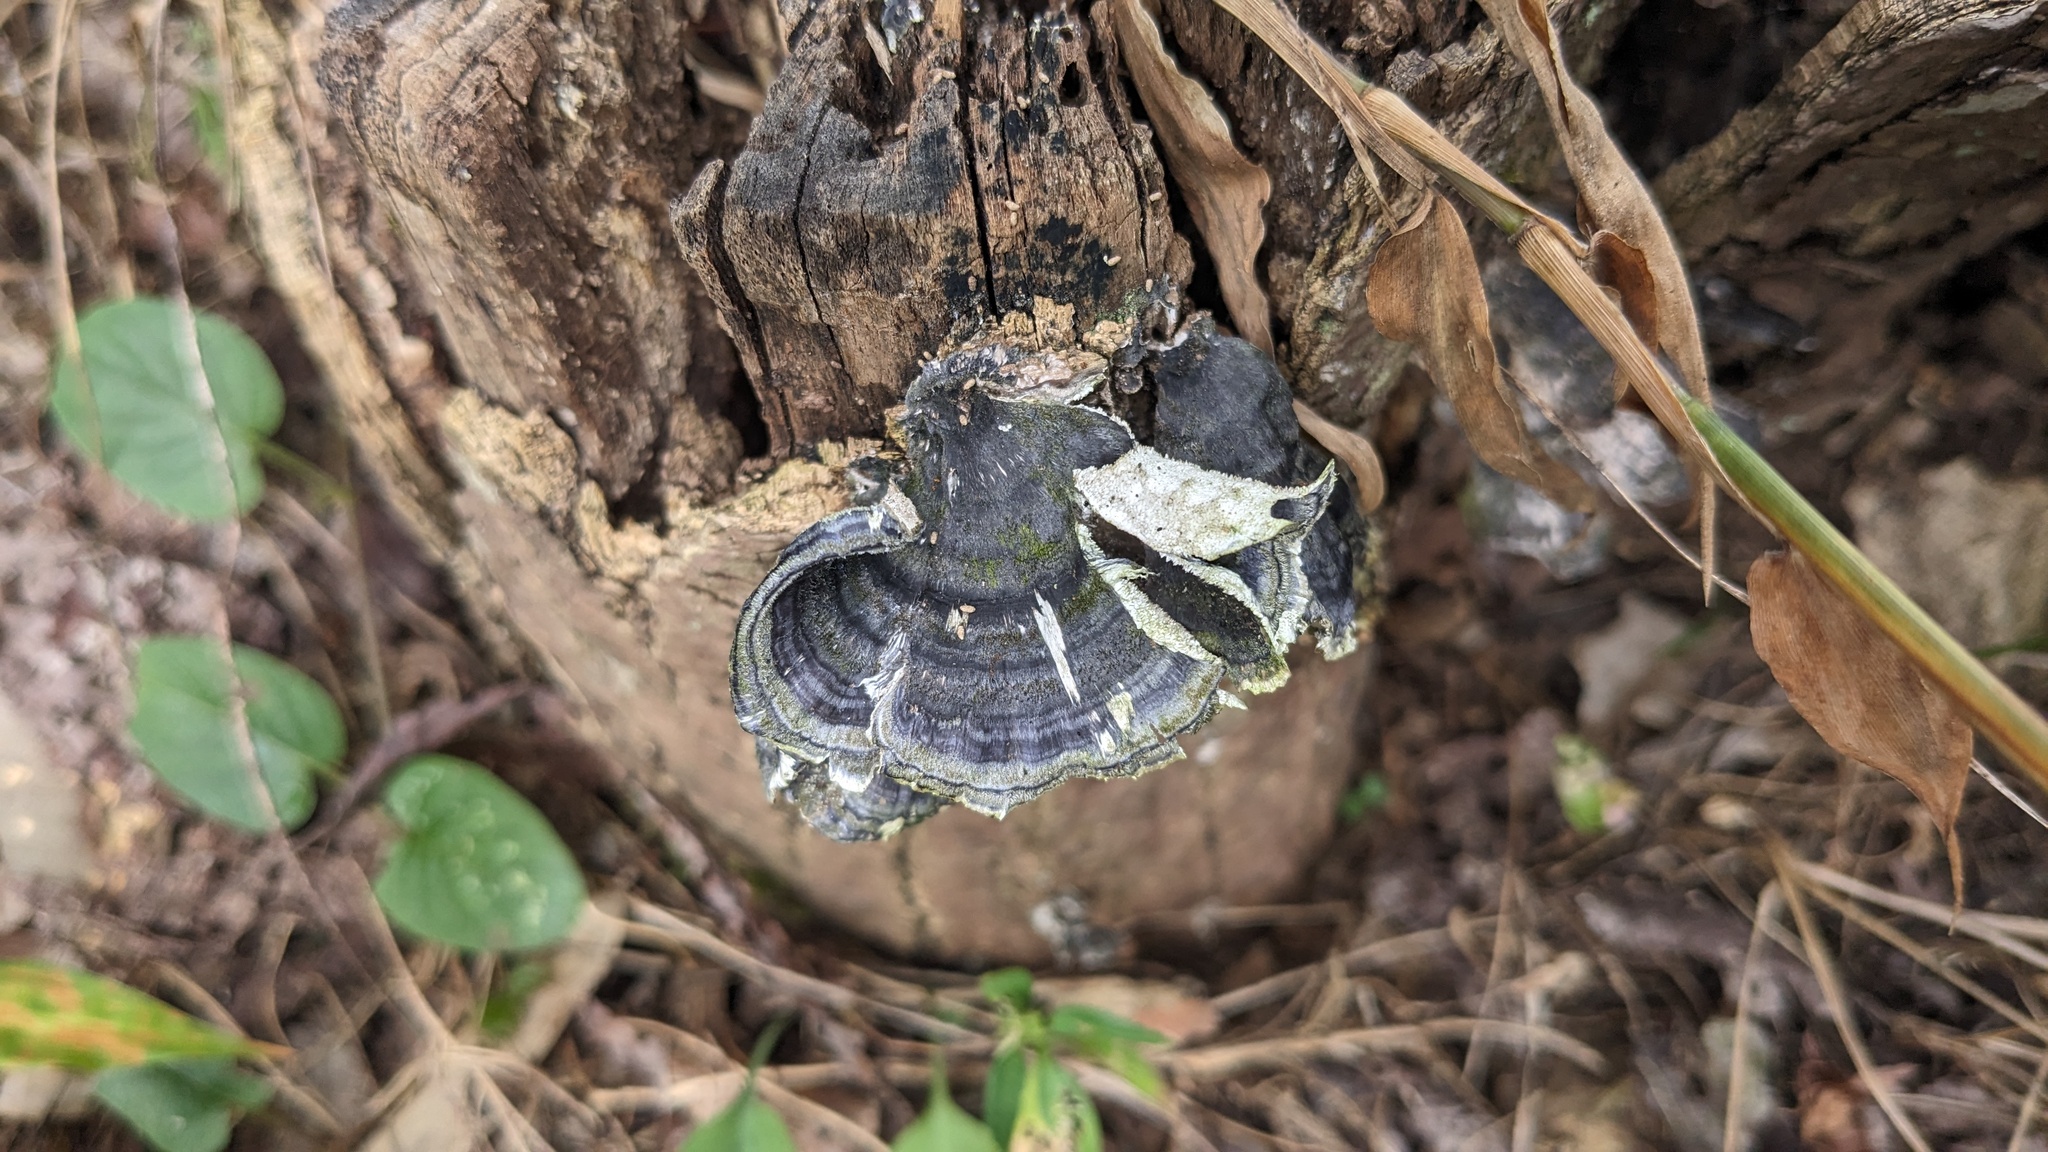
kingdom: Fungi
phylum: Basidiomycota
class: Agaricomycetes
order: Polyporales
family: Polyporaceae
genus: Trametes
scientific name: Trametes versicolor
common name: Turkeytail
